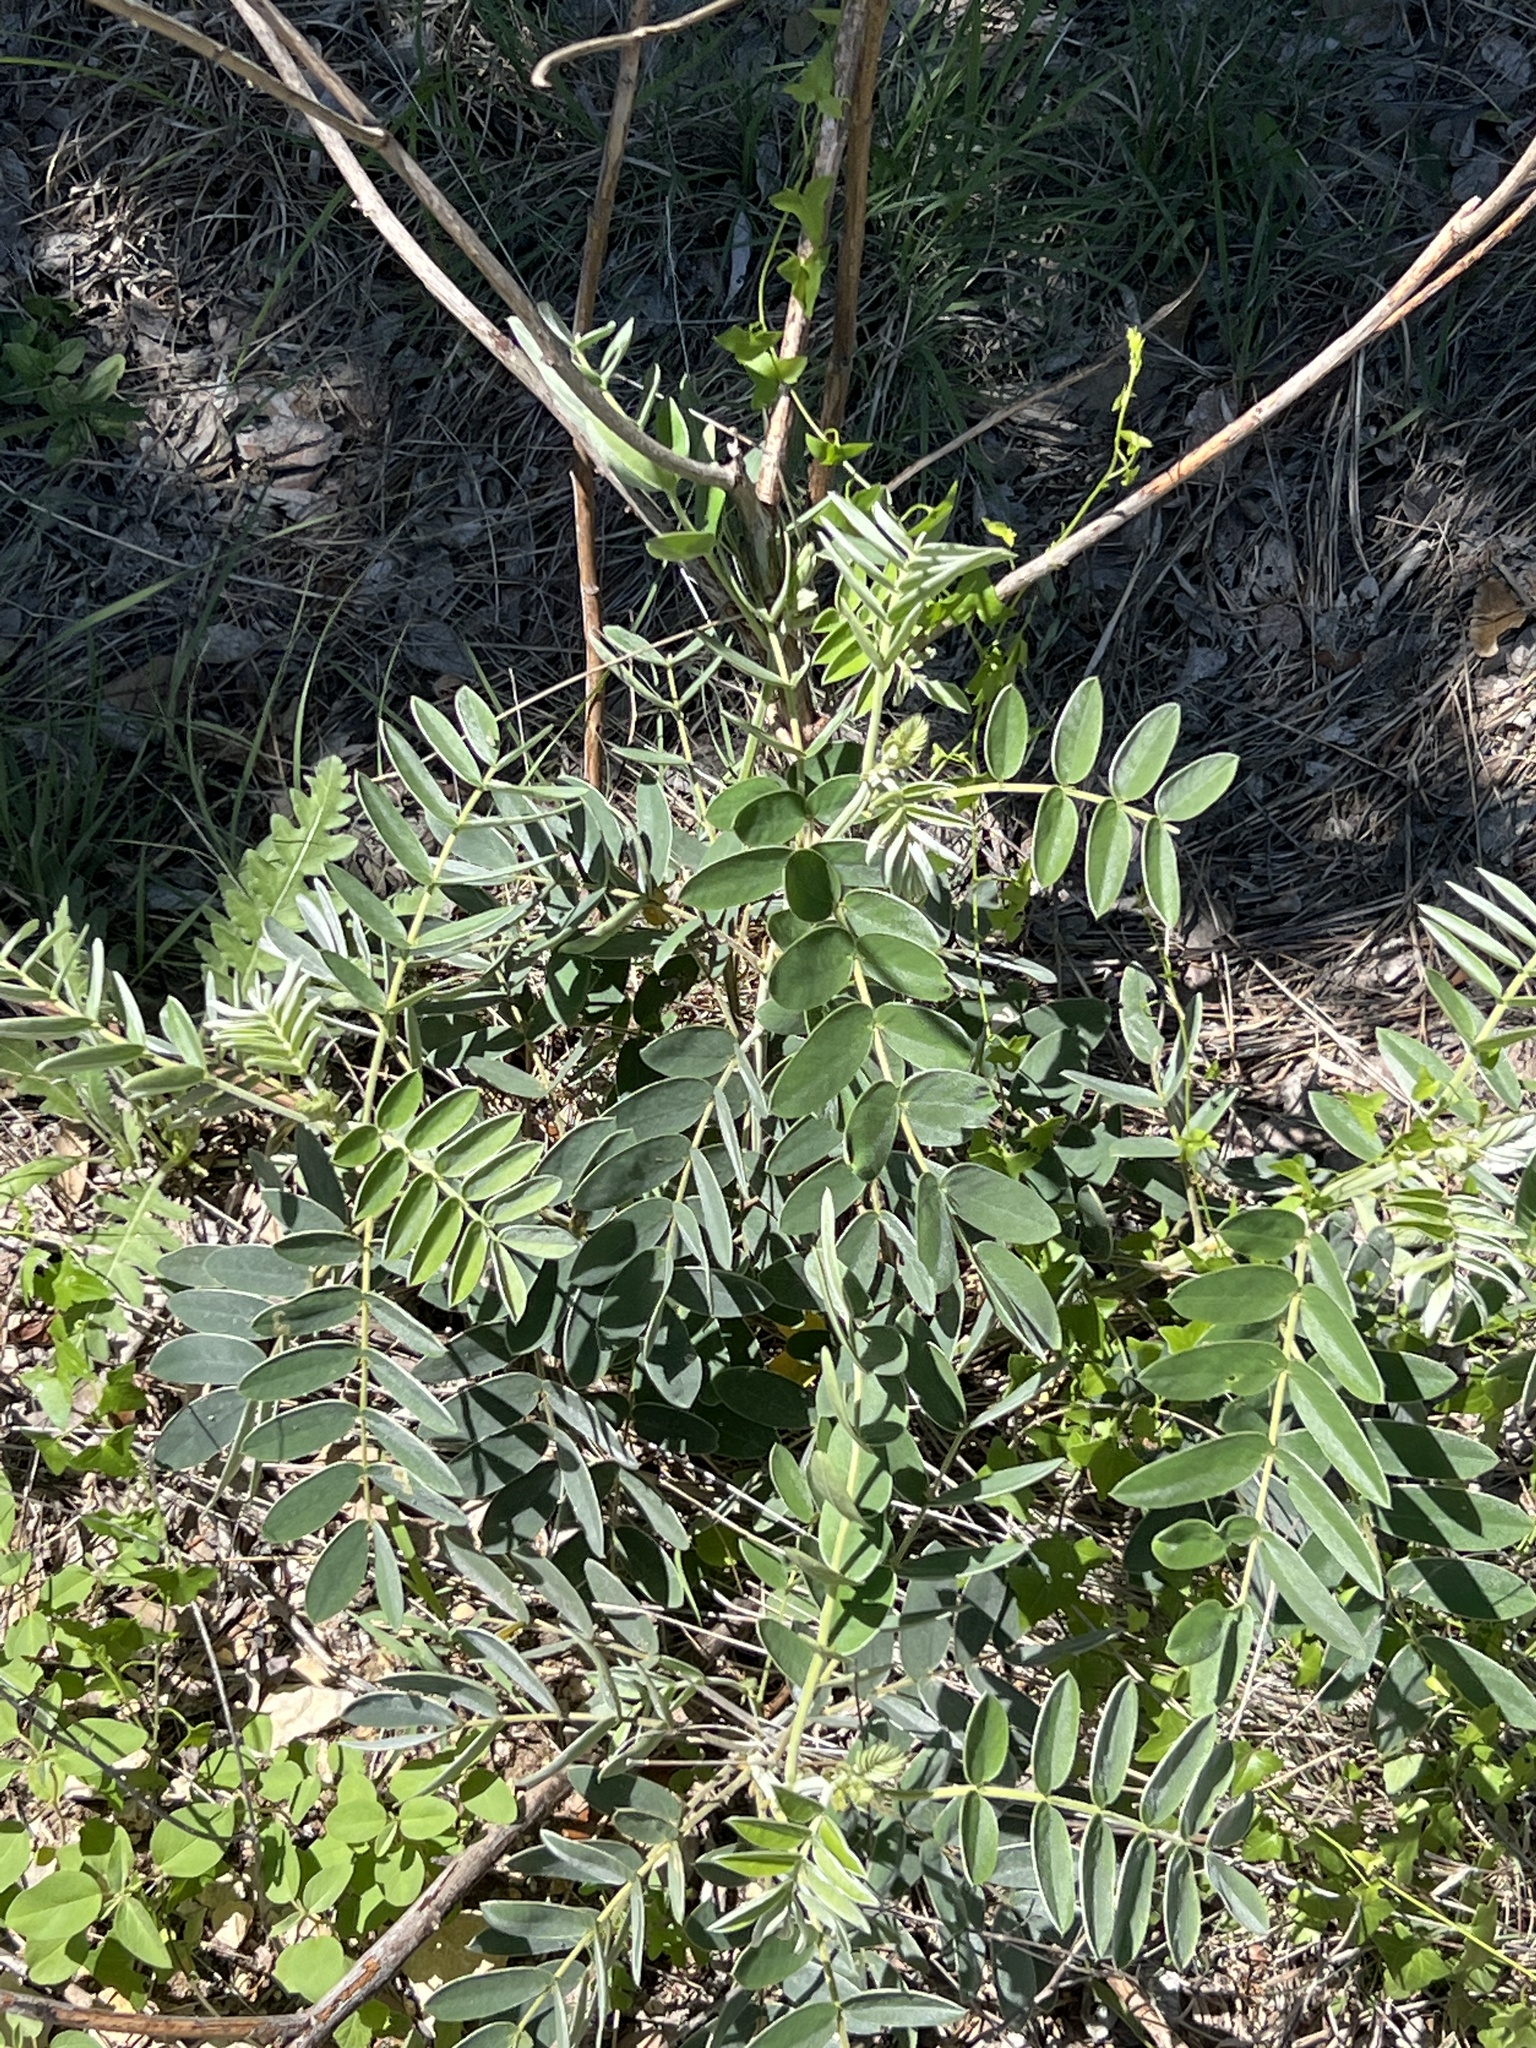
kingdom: Plantae
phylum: Tracheophyta
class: Magnoliopsida
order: Fabales
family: Fabaceae
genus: Senna
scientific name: Senna lindheimeriana
